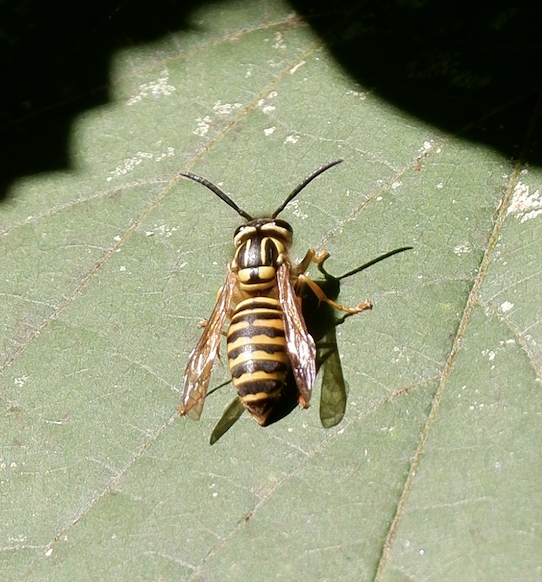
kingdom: Animalia
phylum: Arthropoda
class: Insecta
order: Hymenoptera
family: Vespidae
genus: Vespula
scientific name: Vespula squamosa
